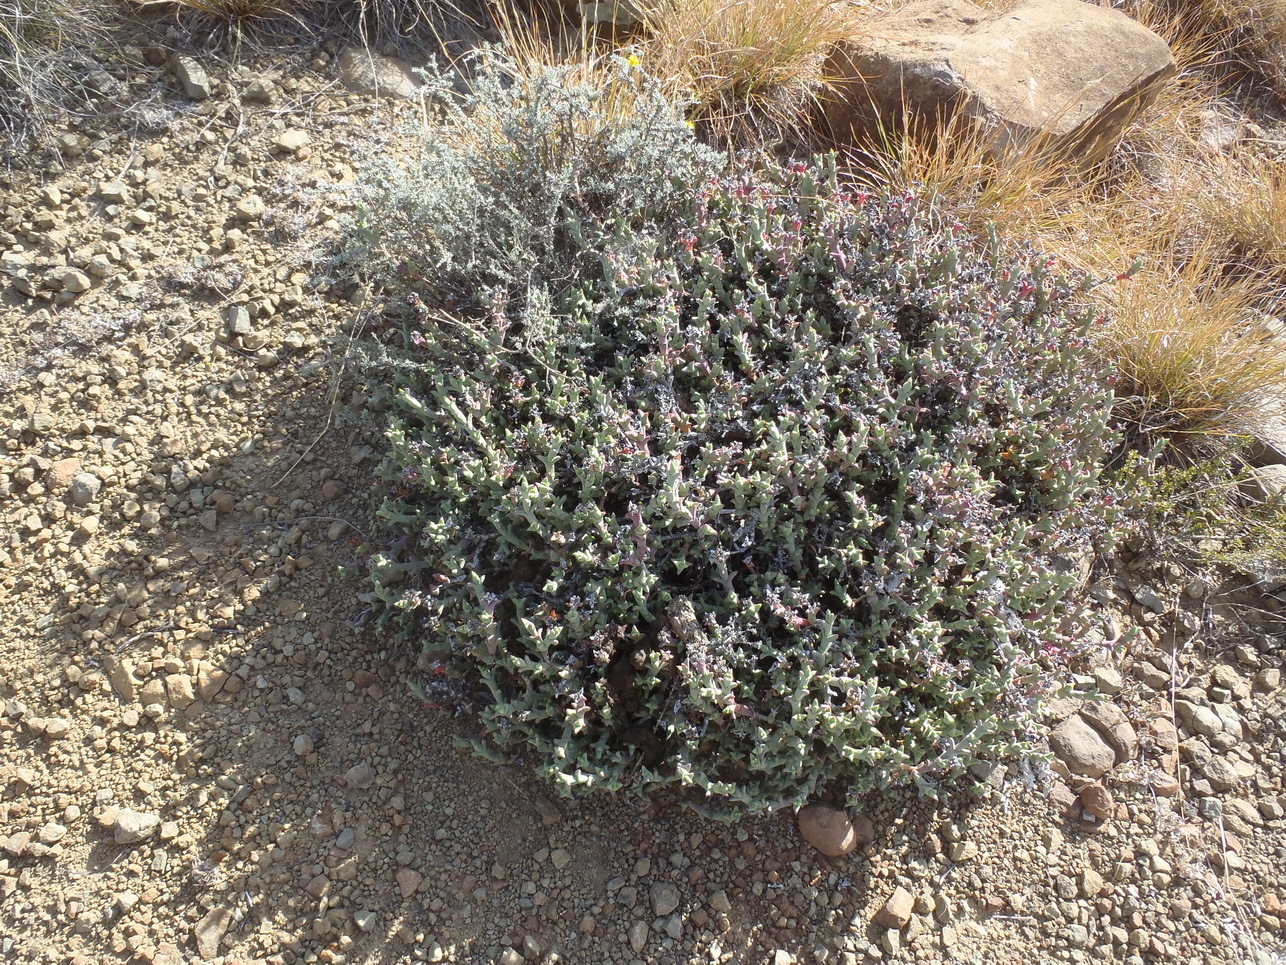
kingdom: Plantae
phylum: Tracheophyta
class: Magnoliopsida
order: Caryophyllales
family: Aizoaceae
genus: Ruschia
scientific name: Ruschia perfoliata
